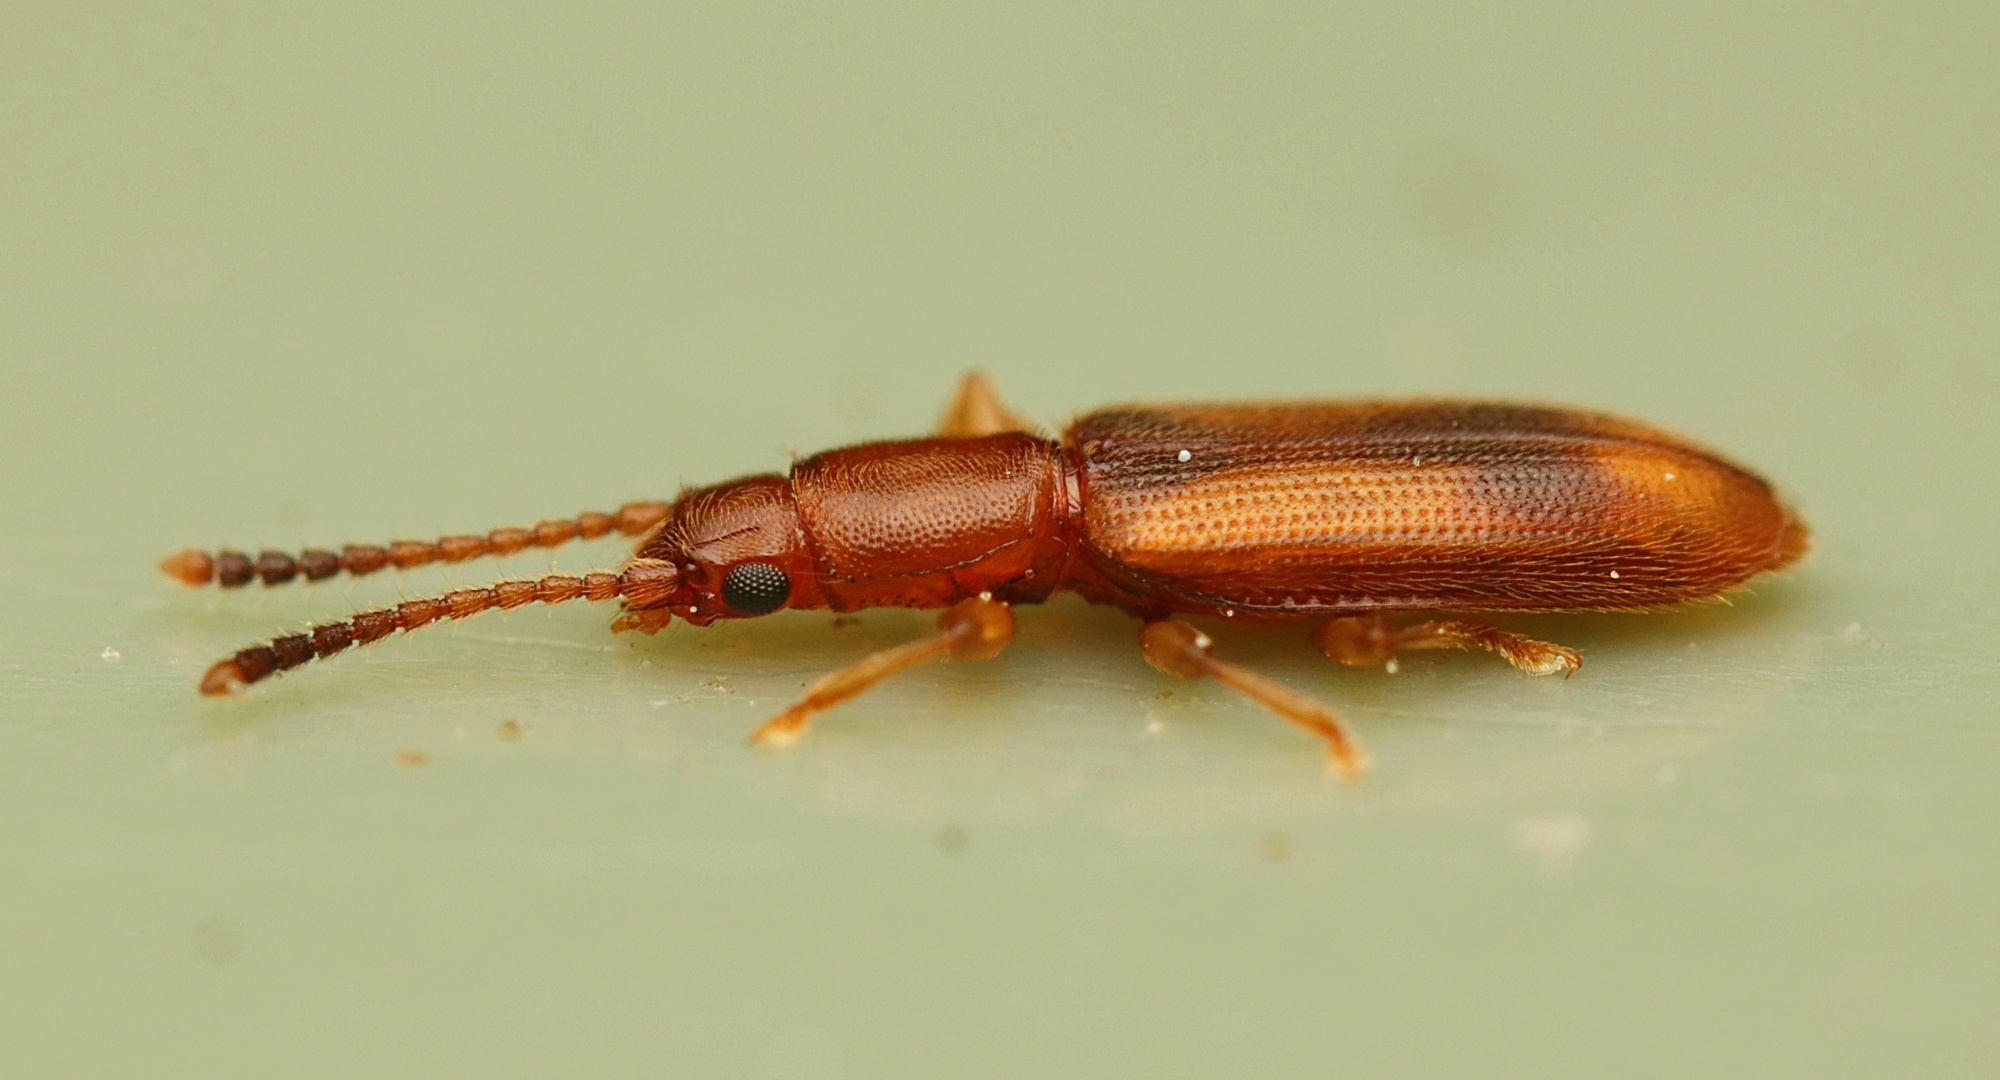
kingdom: Animalia
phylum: Arthropoda
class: Insecta
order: Coleoptera
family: Silvanidae
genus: Cryptamorpha
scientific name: Cryptamorpha desjardinsi
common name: Cryptamorpha
